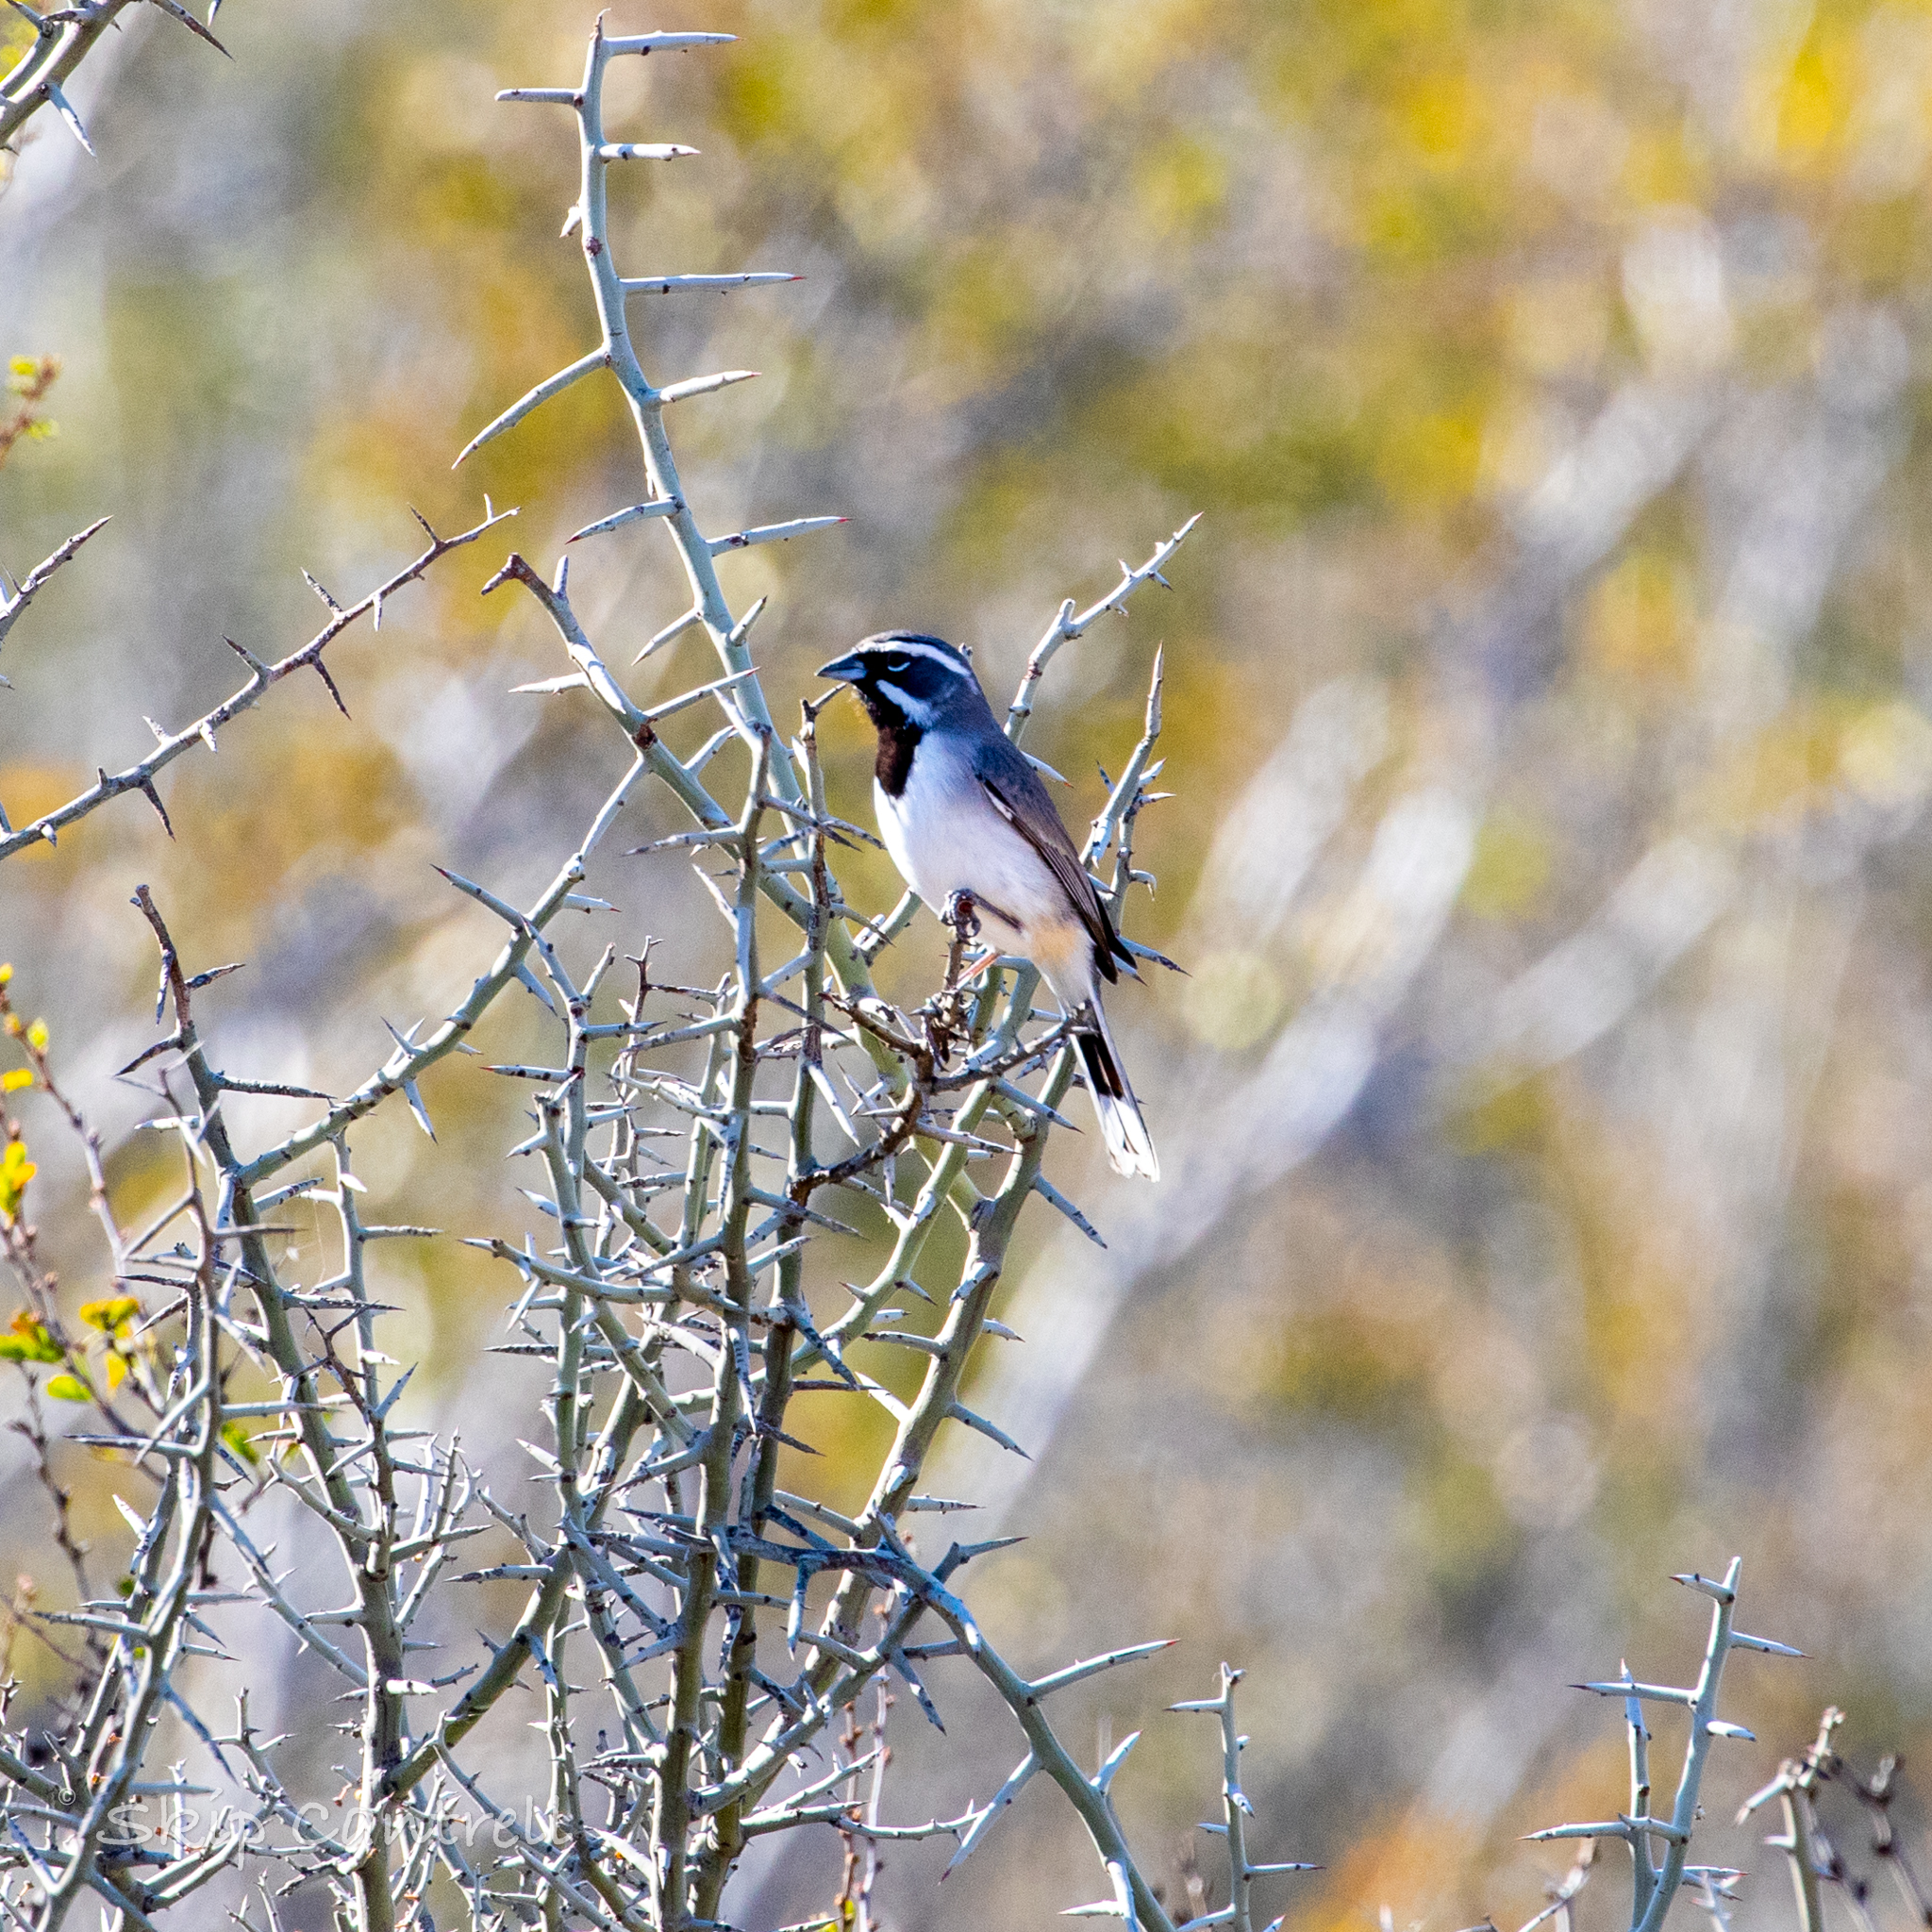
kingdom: Animalia
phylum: Chordata
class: Aves
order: Passeriformes
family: Passerellidae
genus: Amphispiza
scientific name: Amphispiza bilineata
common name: Black-throated sparrow
